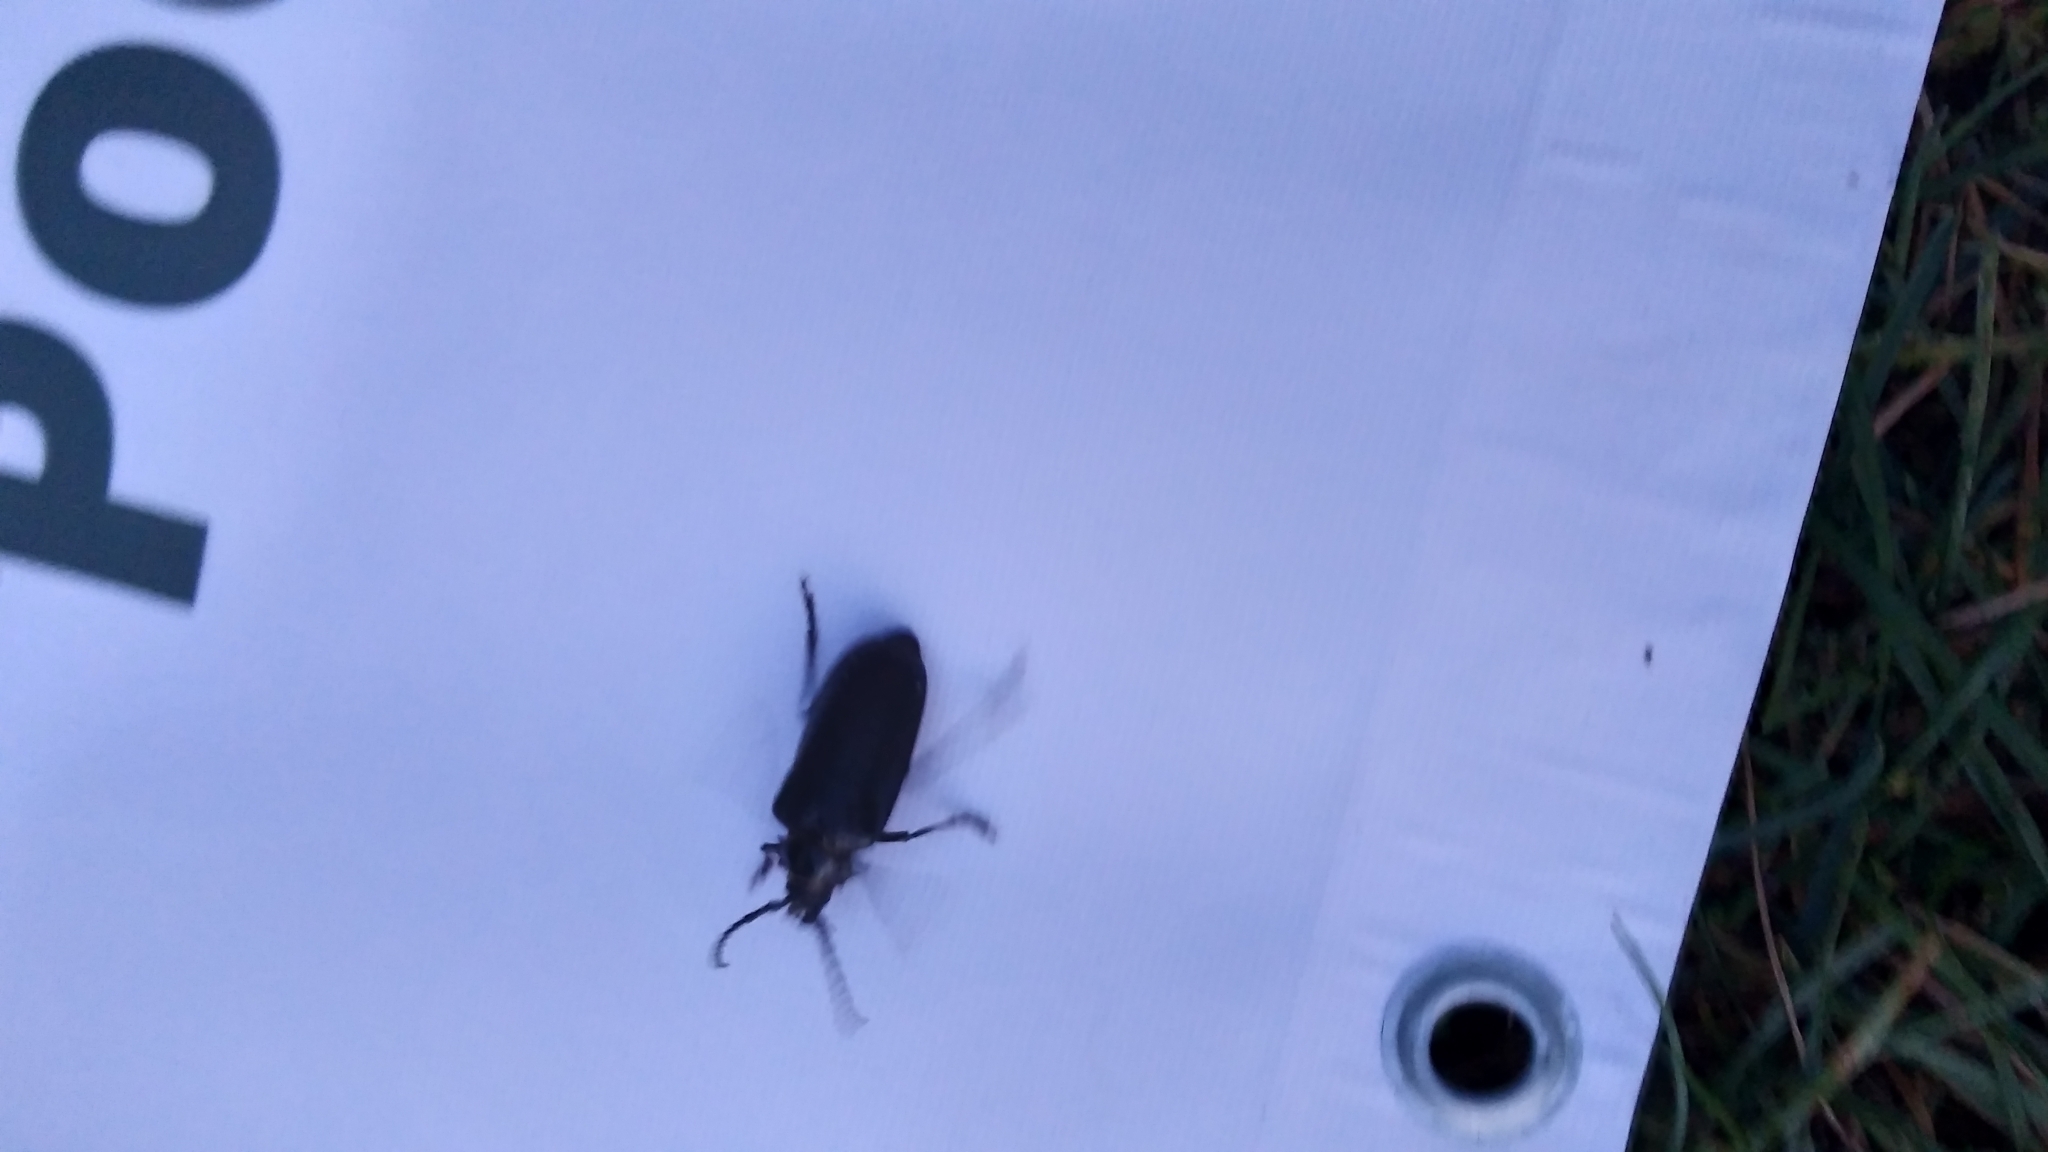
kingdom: Animalia
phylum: Arthropoda
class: Insecta
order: Coleoptera
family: Cerambycidae
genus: Prionus
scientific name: Prionus coriarius
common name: Tanner beetle
